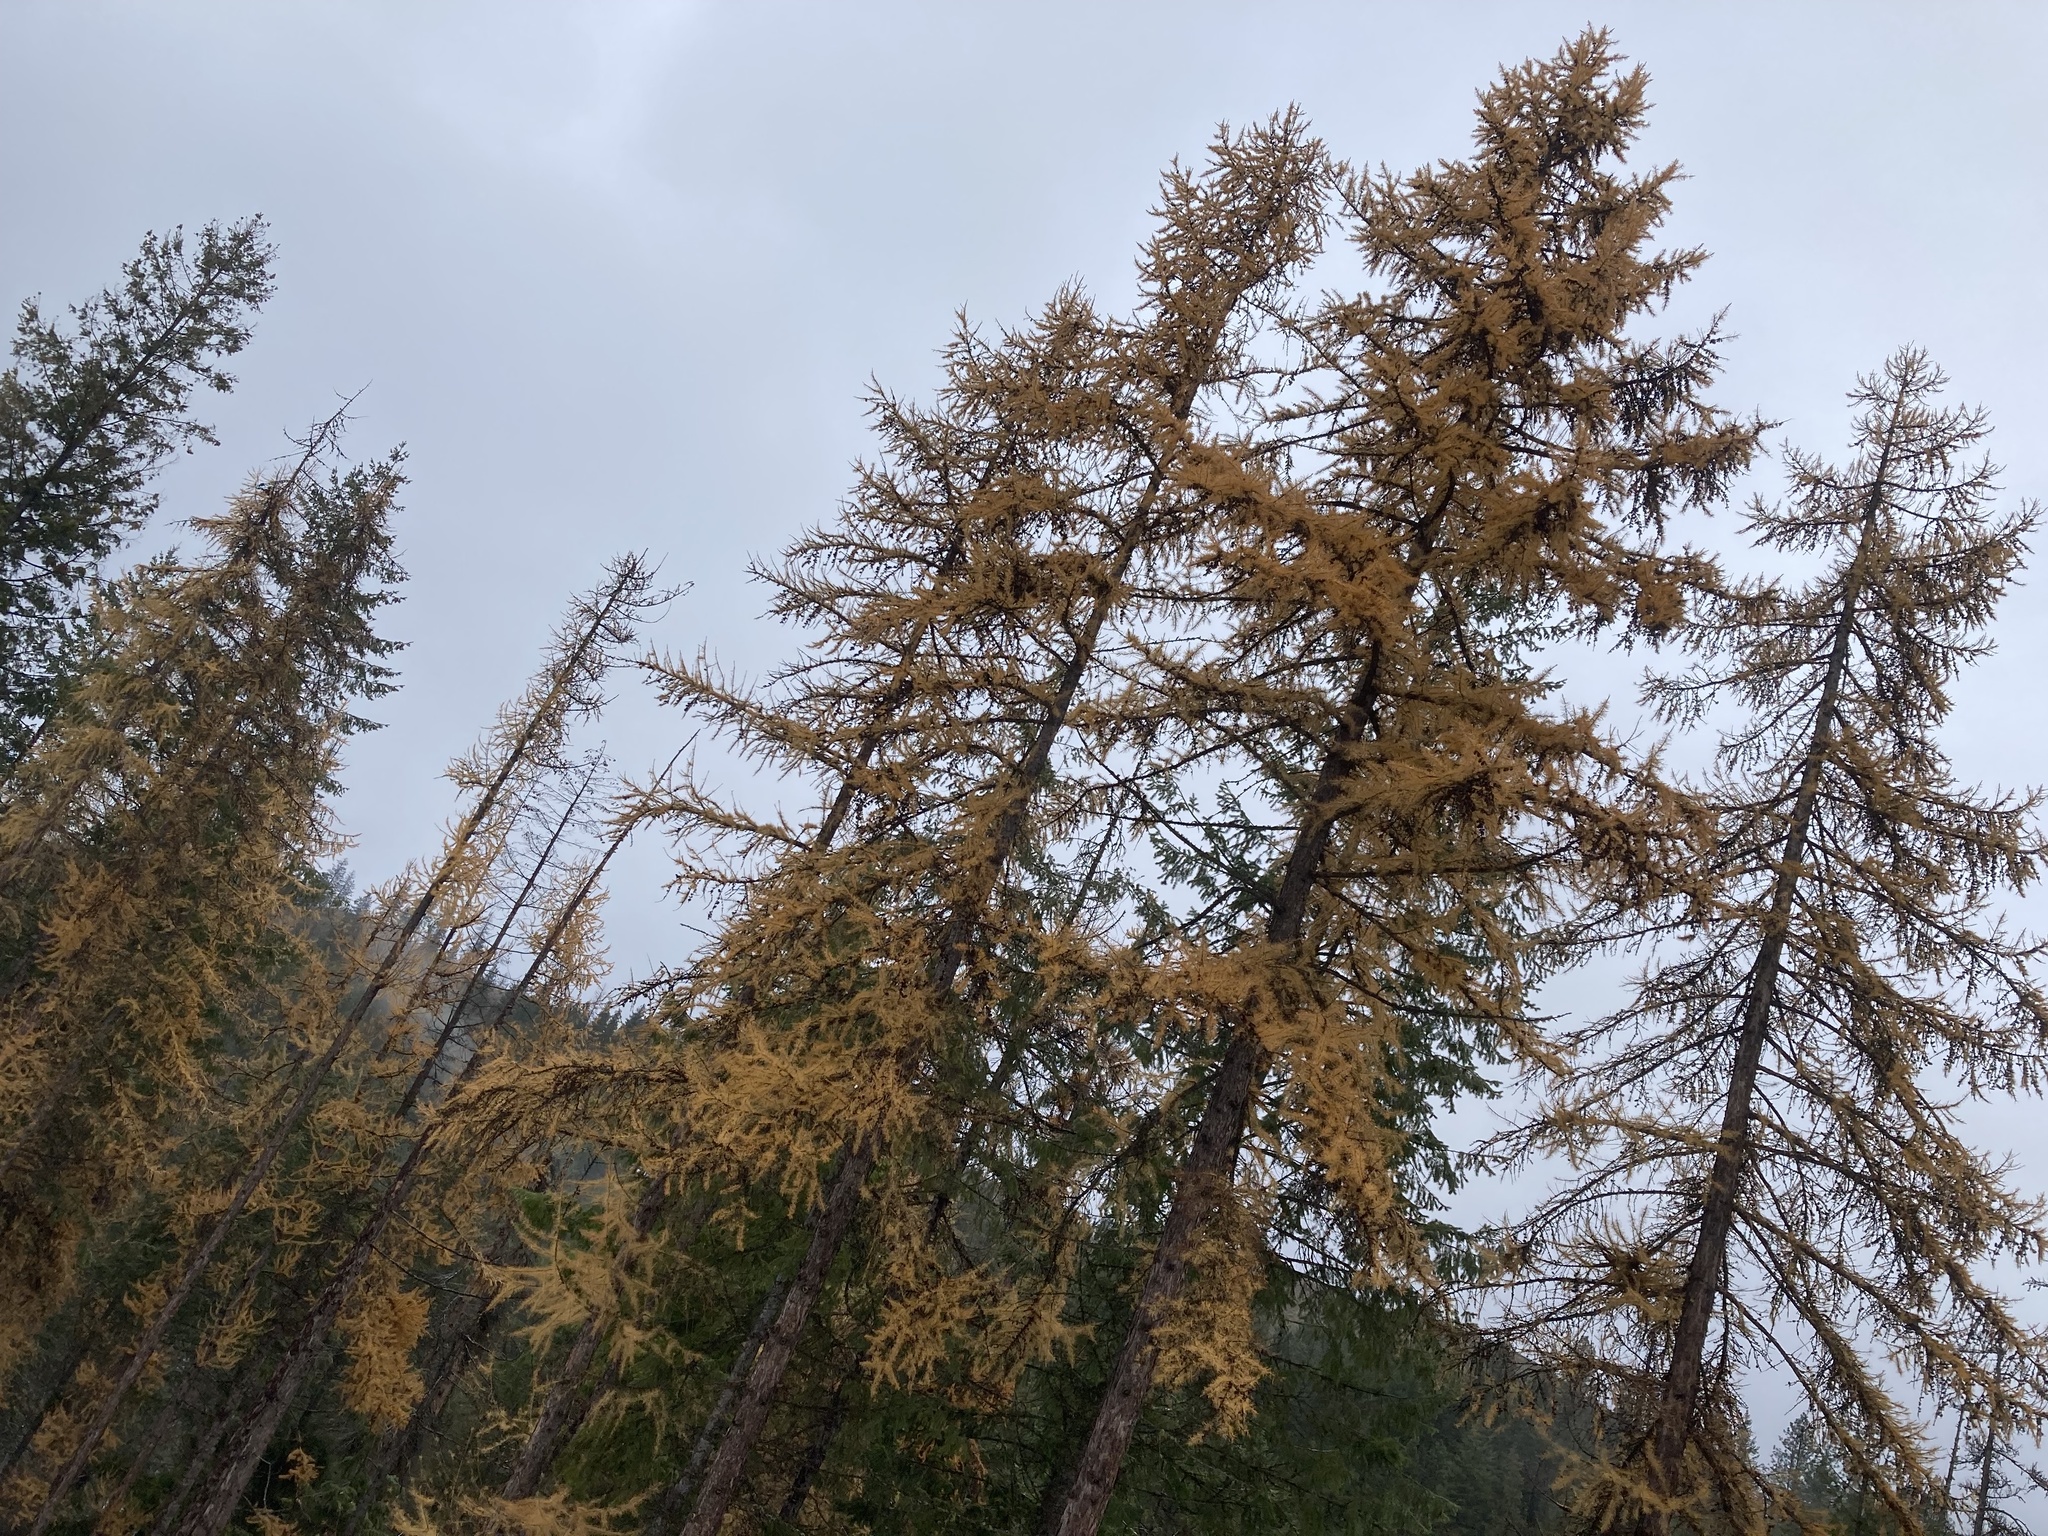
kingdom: Plantae
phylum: Tracheophyta
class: Pinopsida
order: Pinales
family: Pinaceae
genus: Larix
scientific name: Larix occidentalis
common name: Western larch
